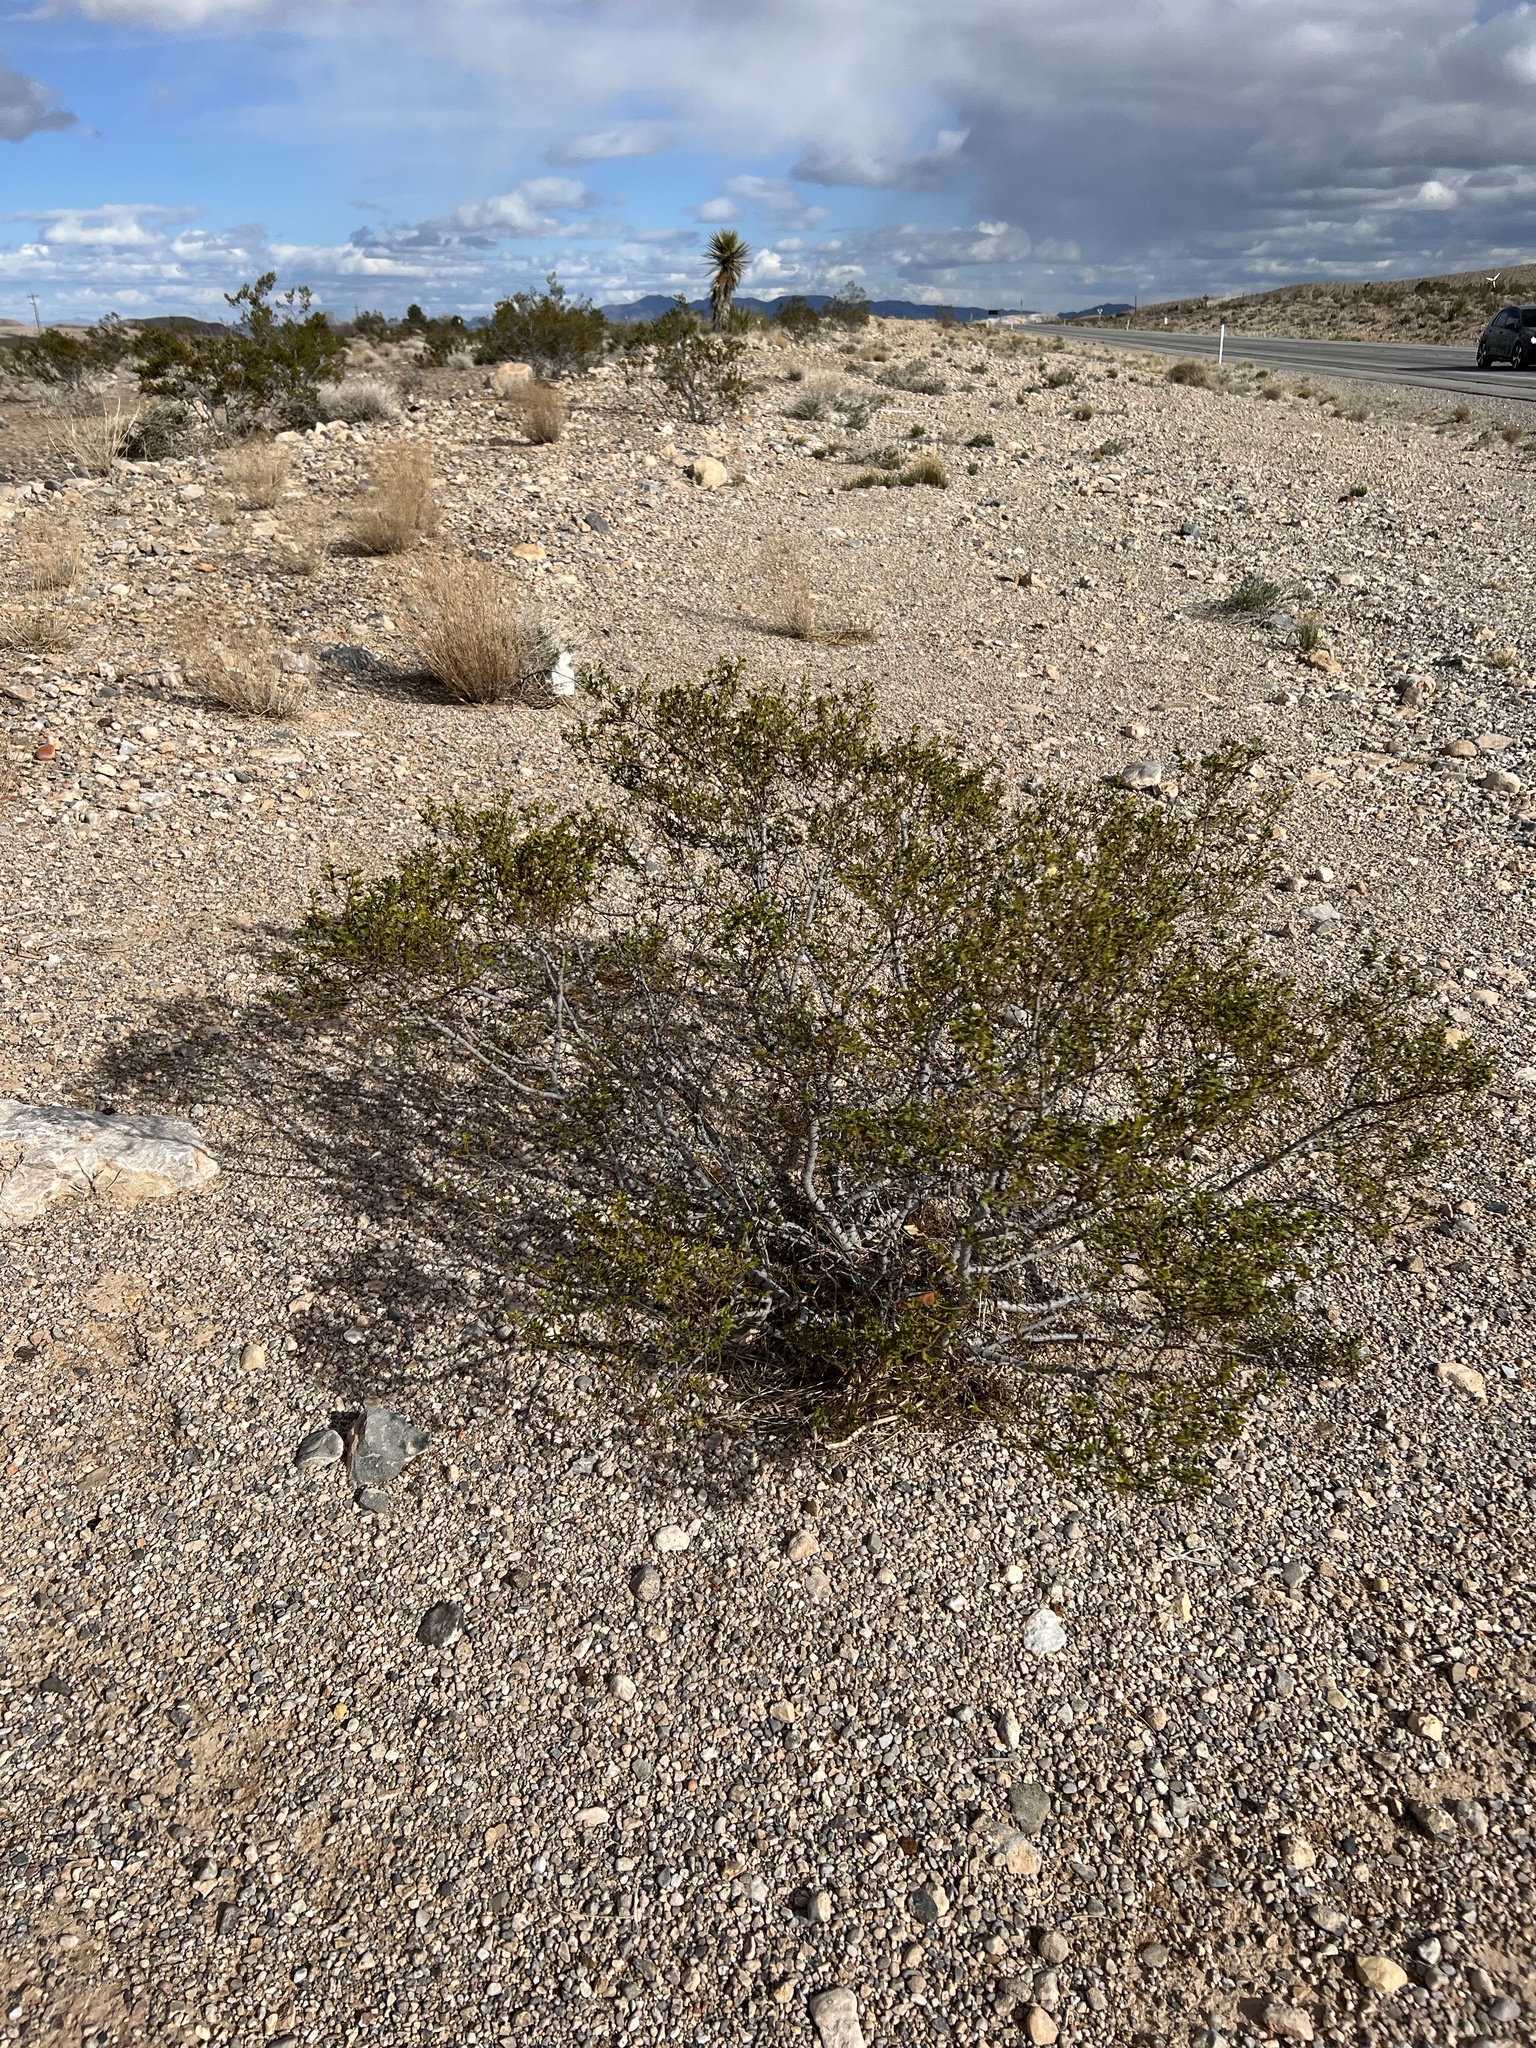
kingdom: Plantae
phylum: Tracheophyta
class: Magnoliopsida
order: Zygophyllales
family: Zygophyllaceae
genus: Larrea
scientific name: Larrea tridentata
